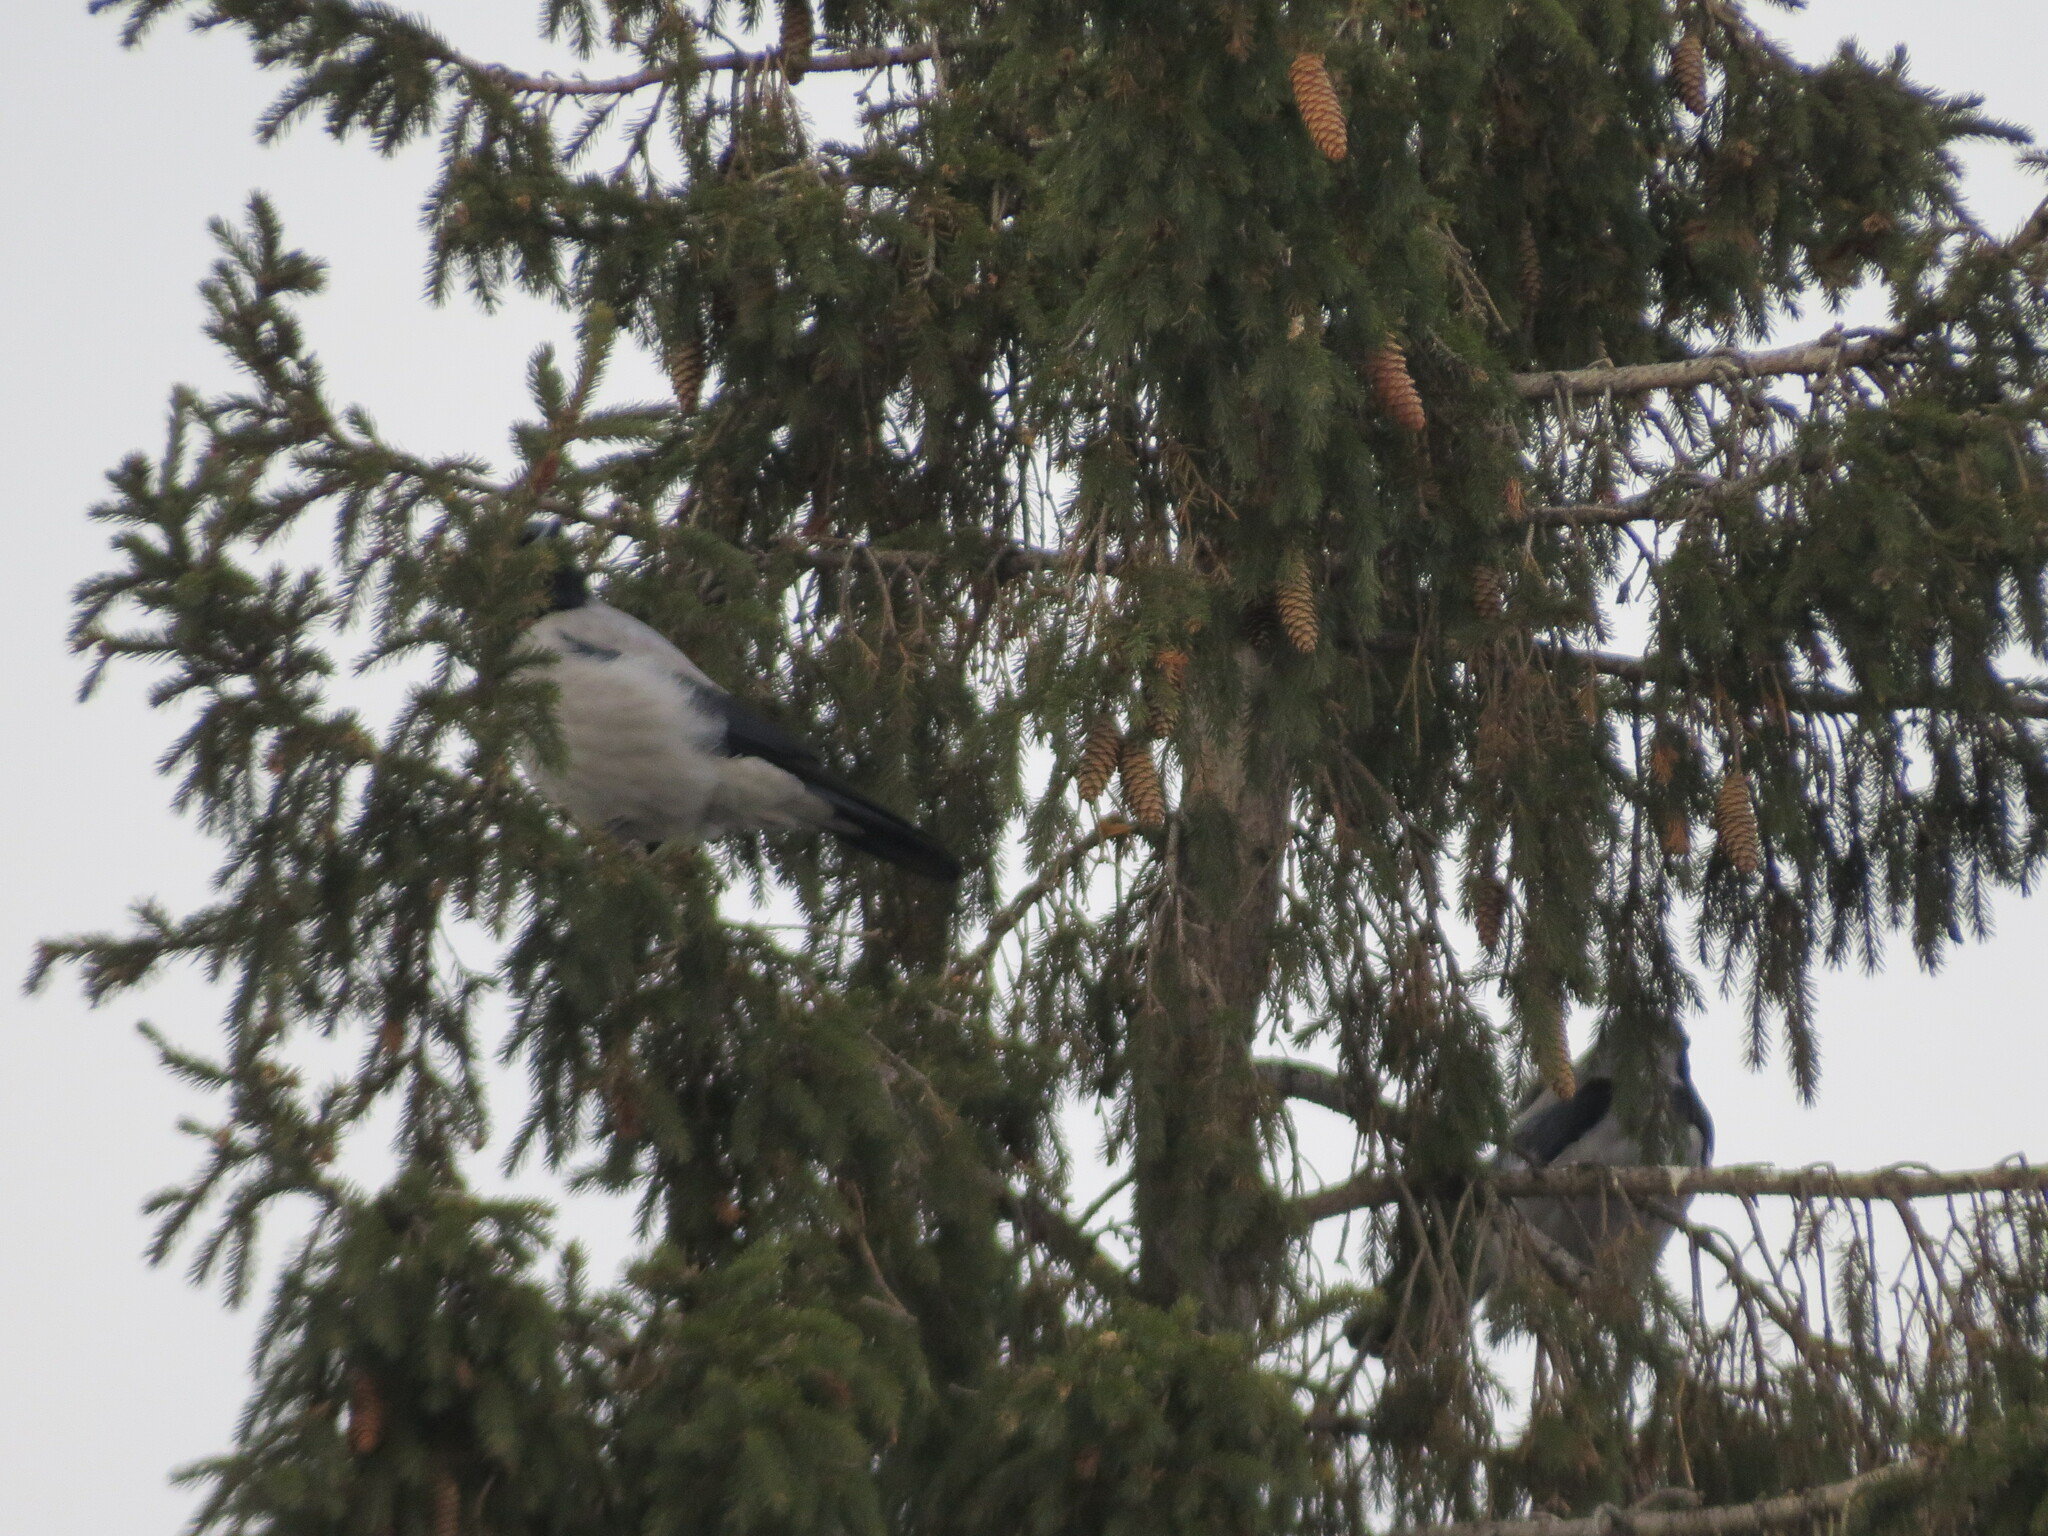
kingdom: Animalia
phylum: Chordata
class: Aves
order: Passeriformes
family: Corvidae
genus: Corvus
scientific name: Corvus cornix
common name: Hooded crow
